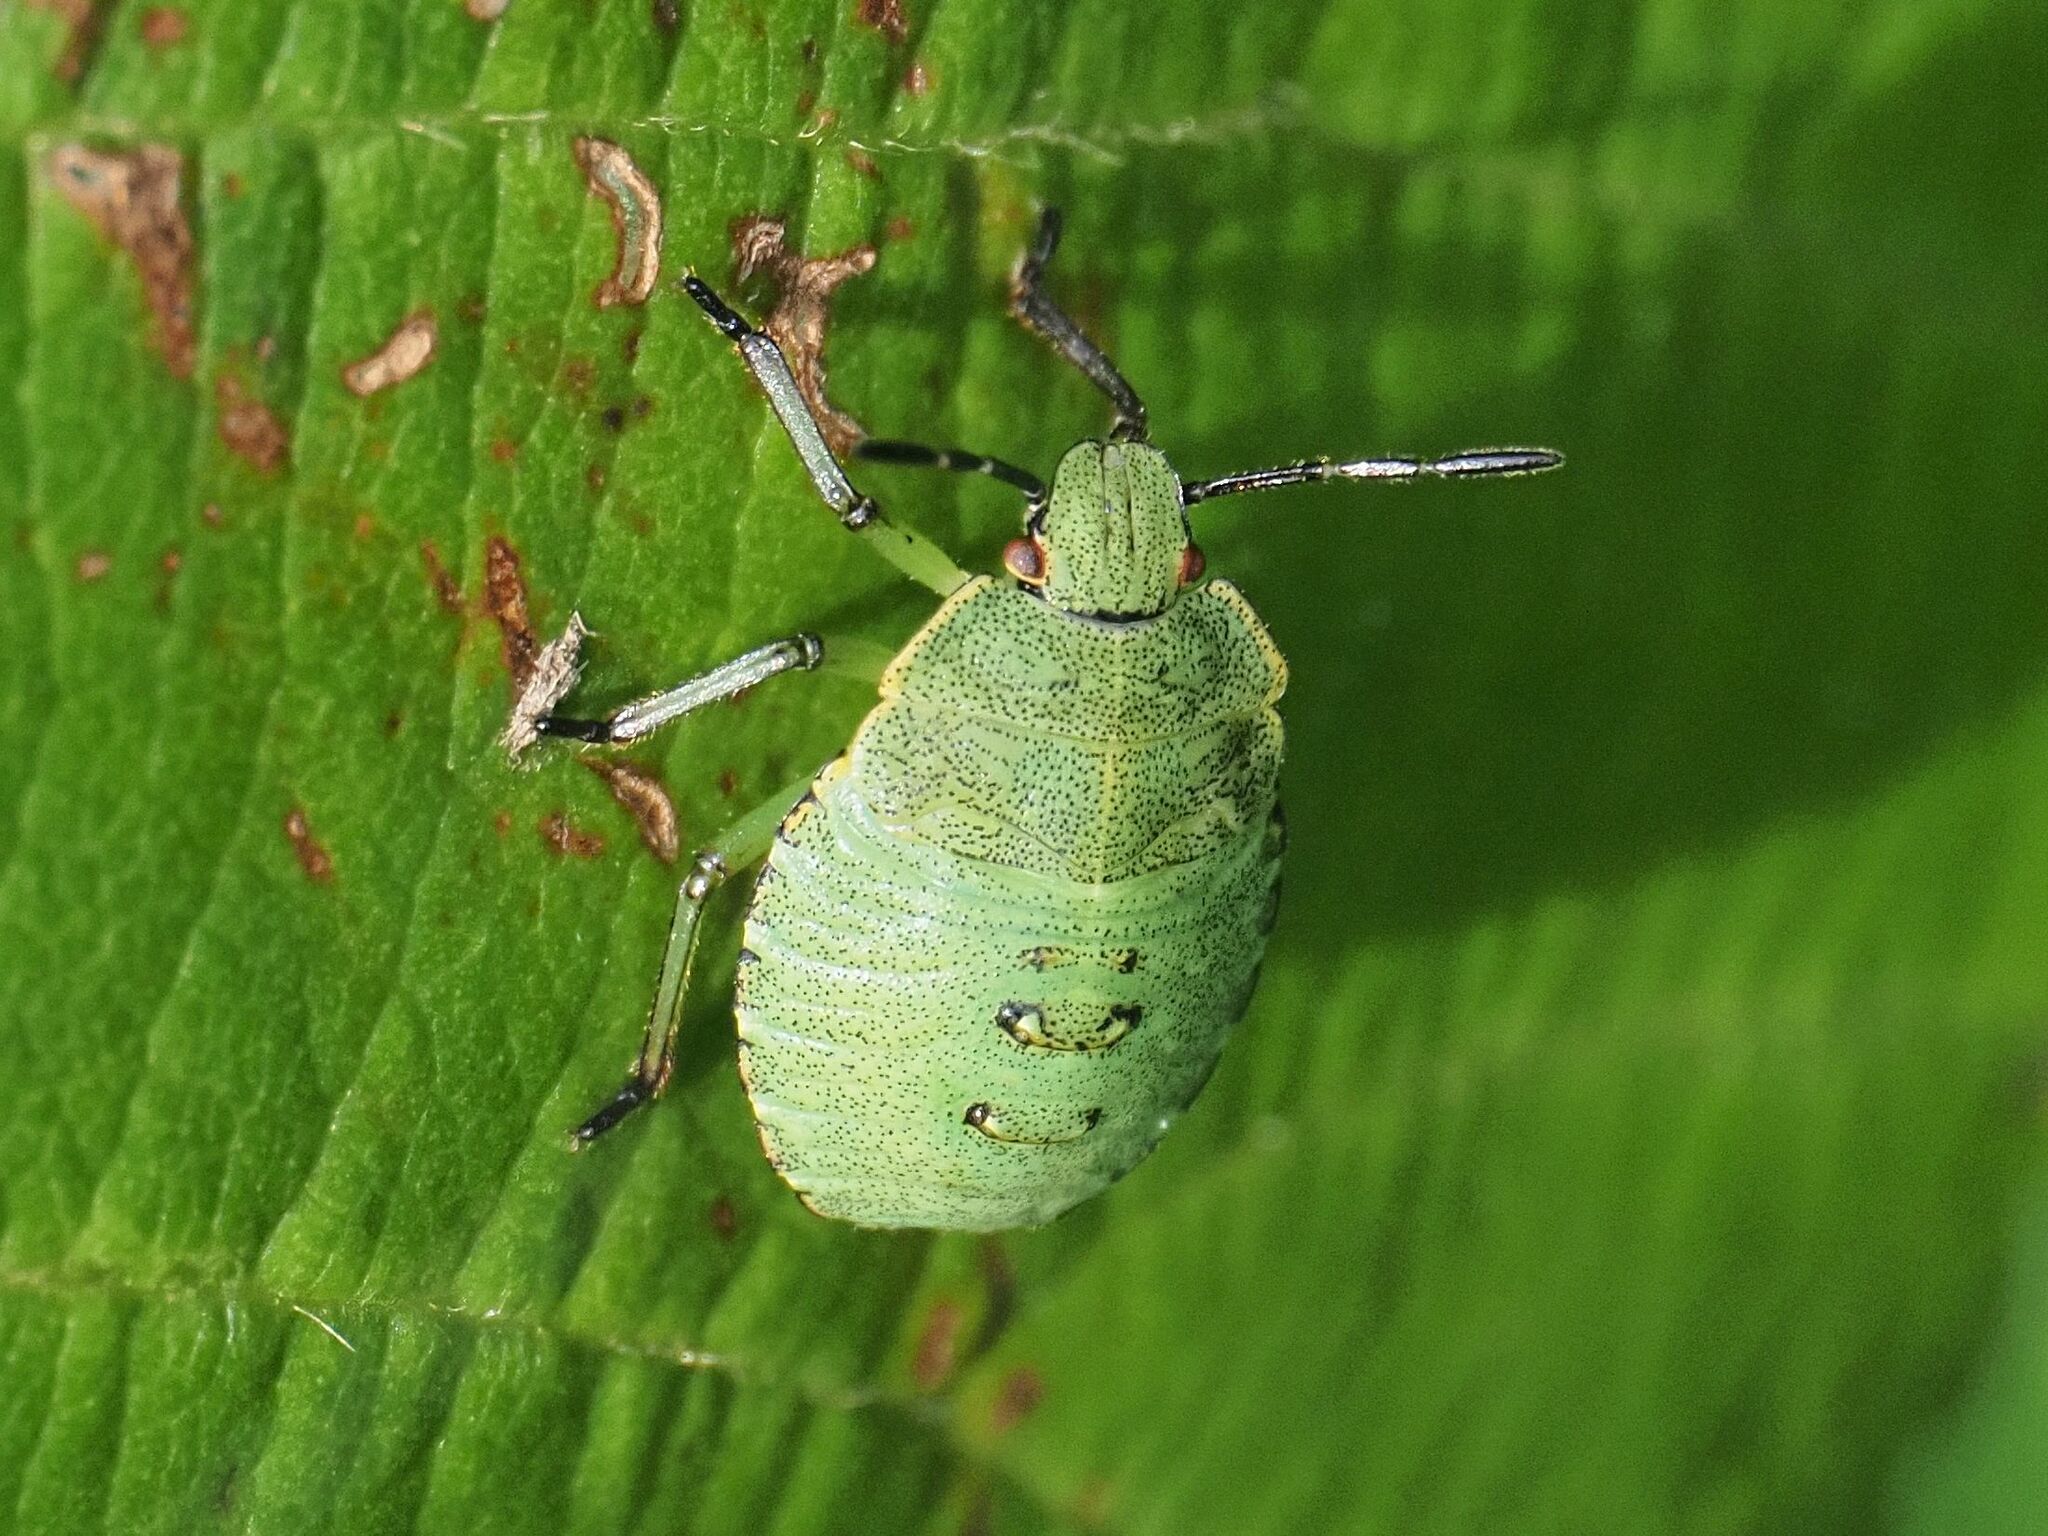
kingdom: Animalia
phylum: Arthropoda
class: Insecta
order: Hemiptera
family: Pentatomidae
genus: Palomena
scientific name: Palomena prasina
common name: Green shieldbug
